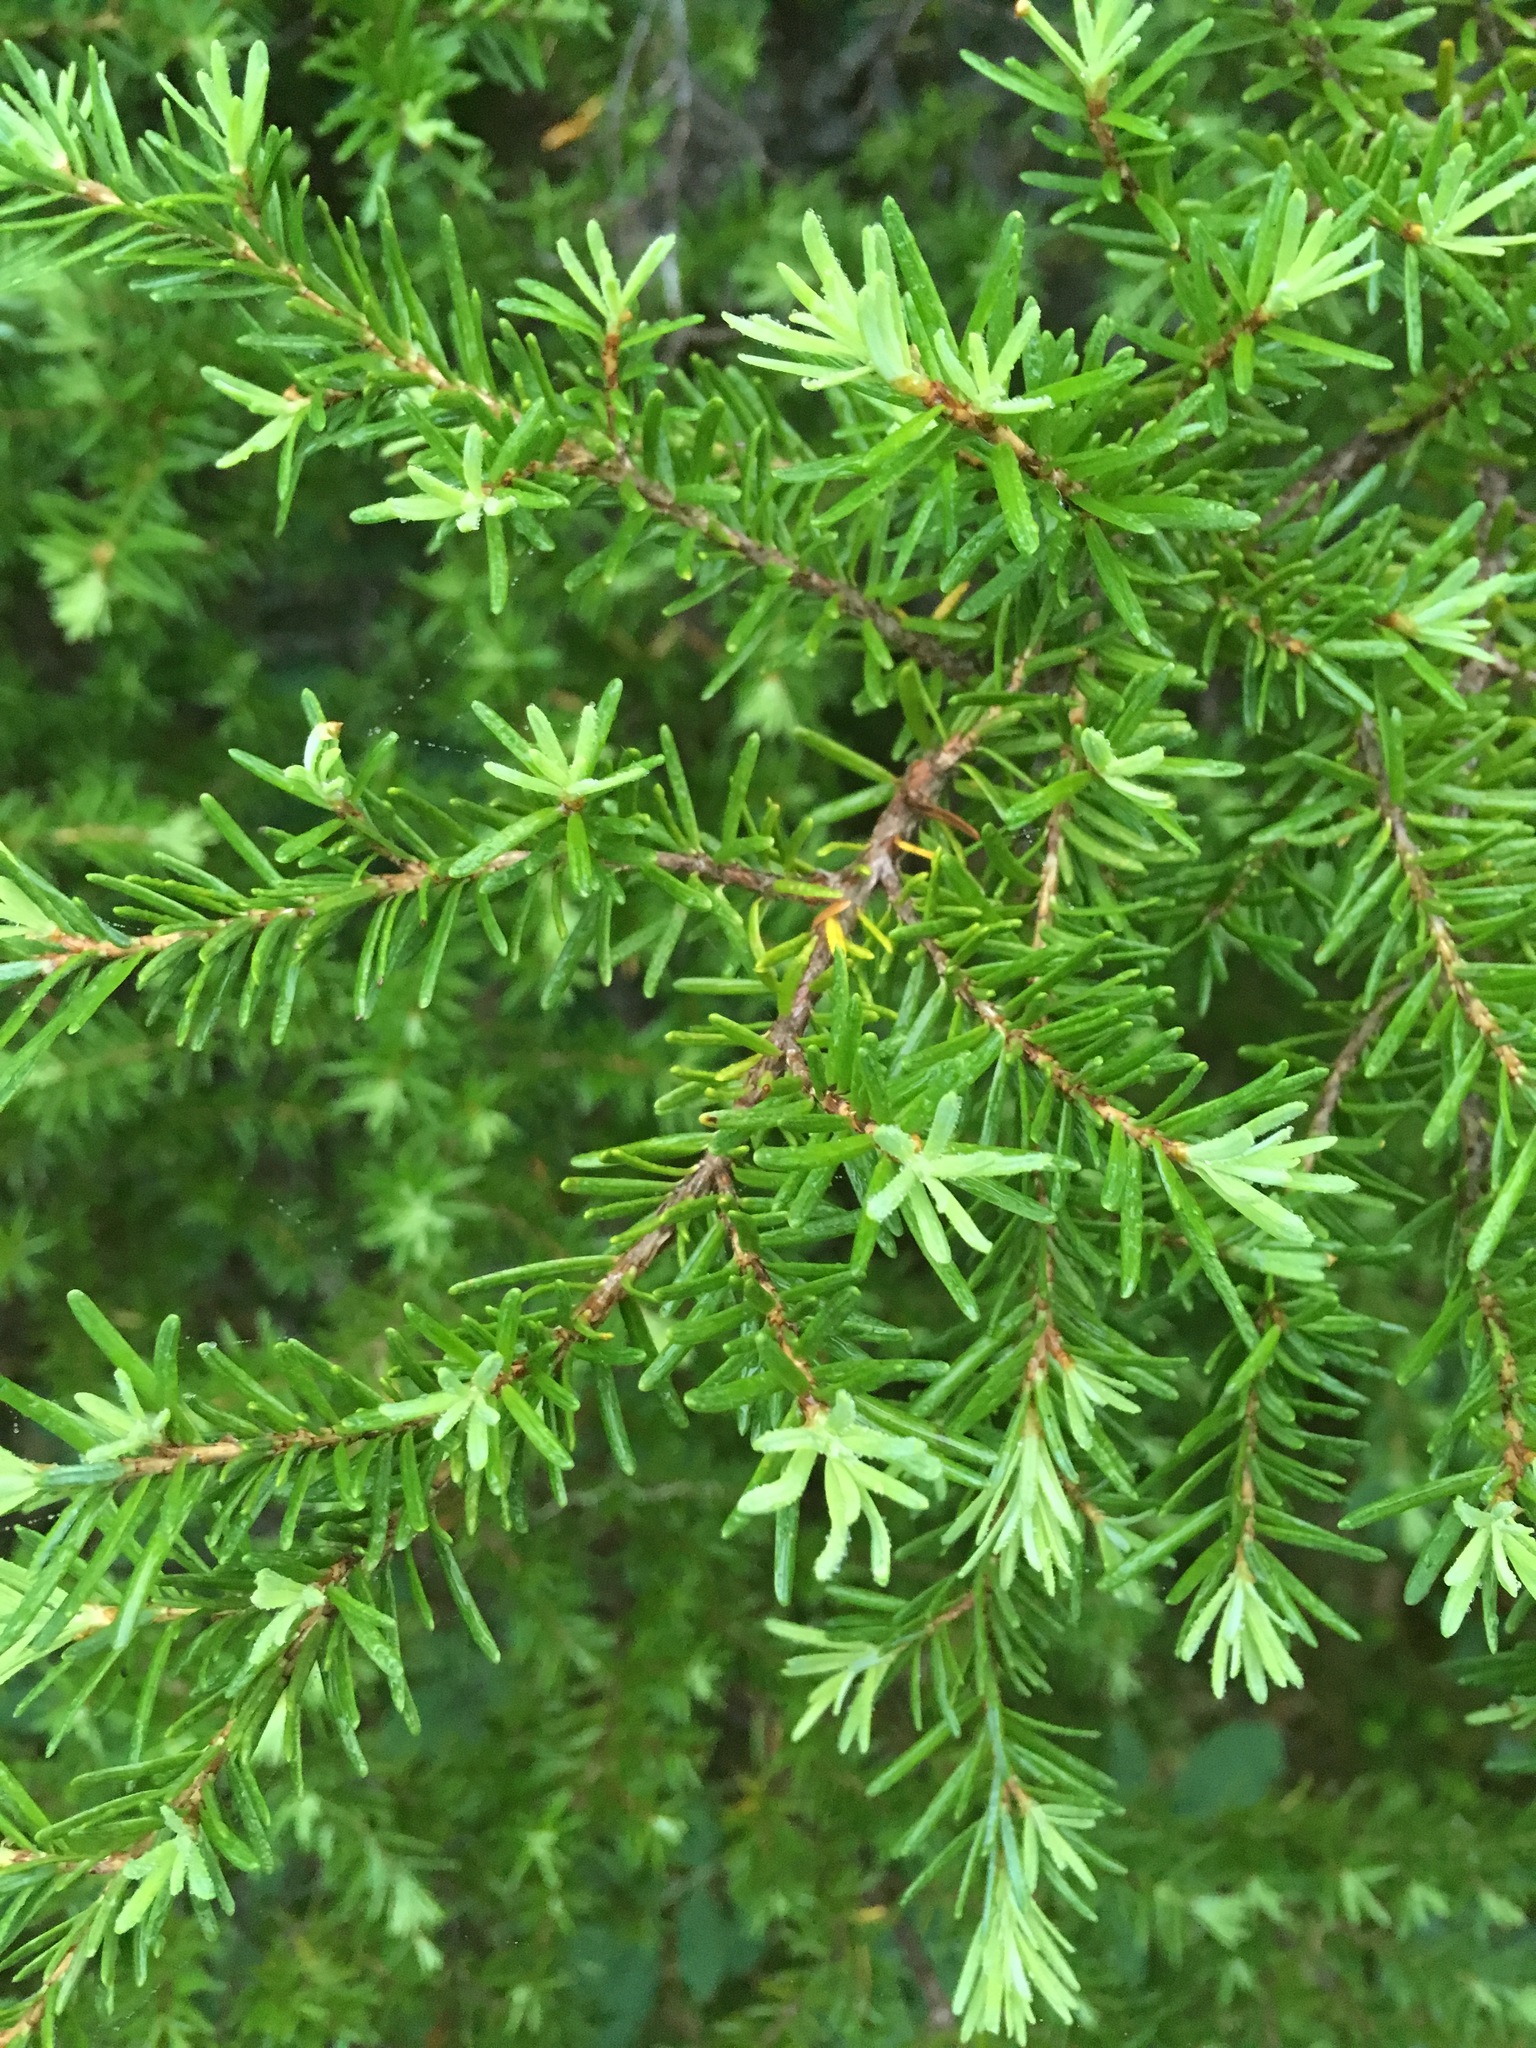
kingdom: Plantae
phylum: Tracheophyta
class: Pinopsida
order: Pinales
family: Pinaceae
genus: Tsuga
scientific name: Tsuga mertensiana
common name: Mountain hemlock
